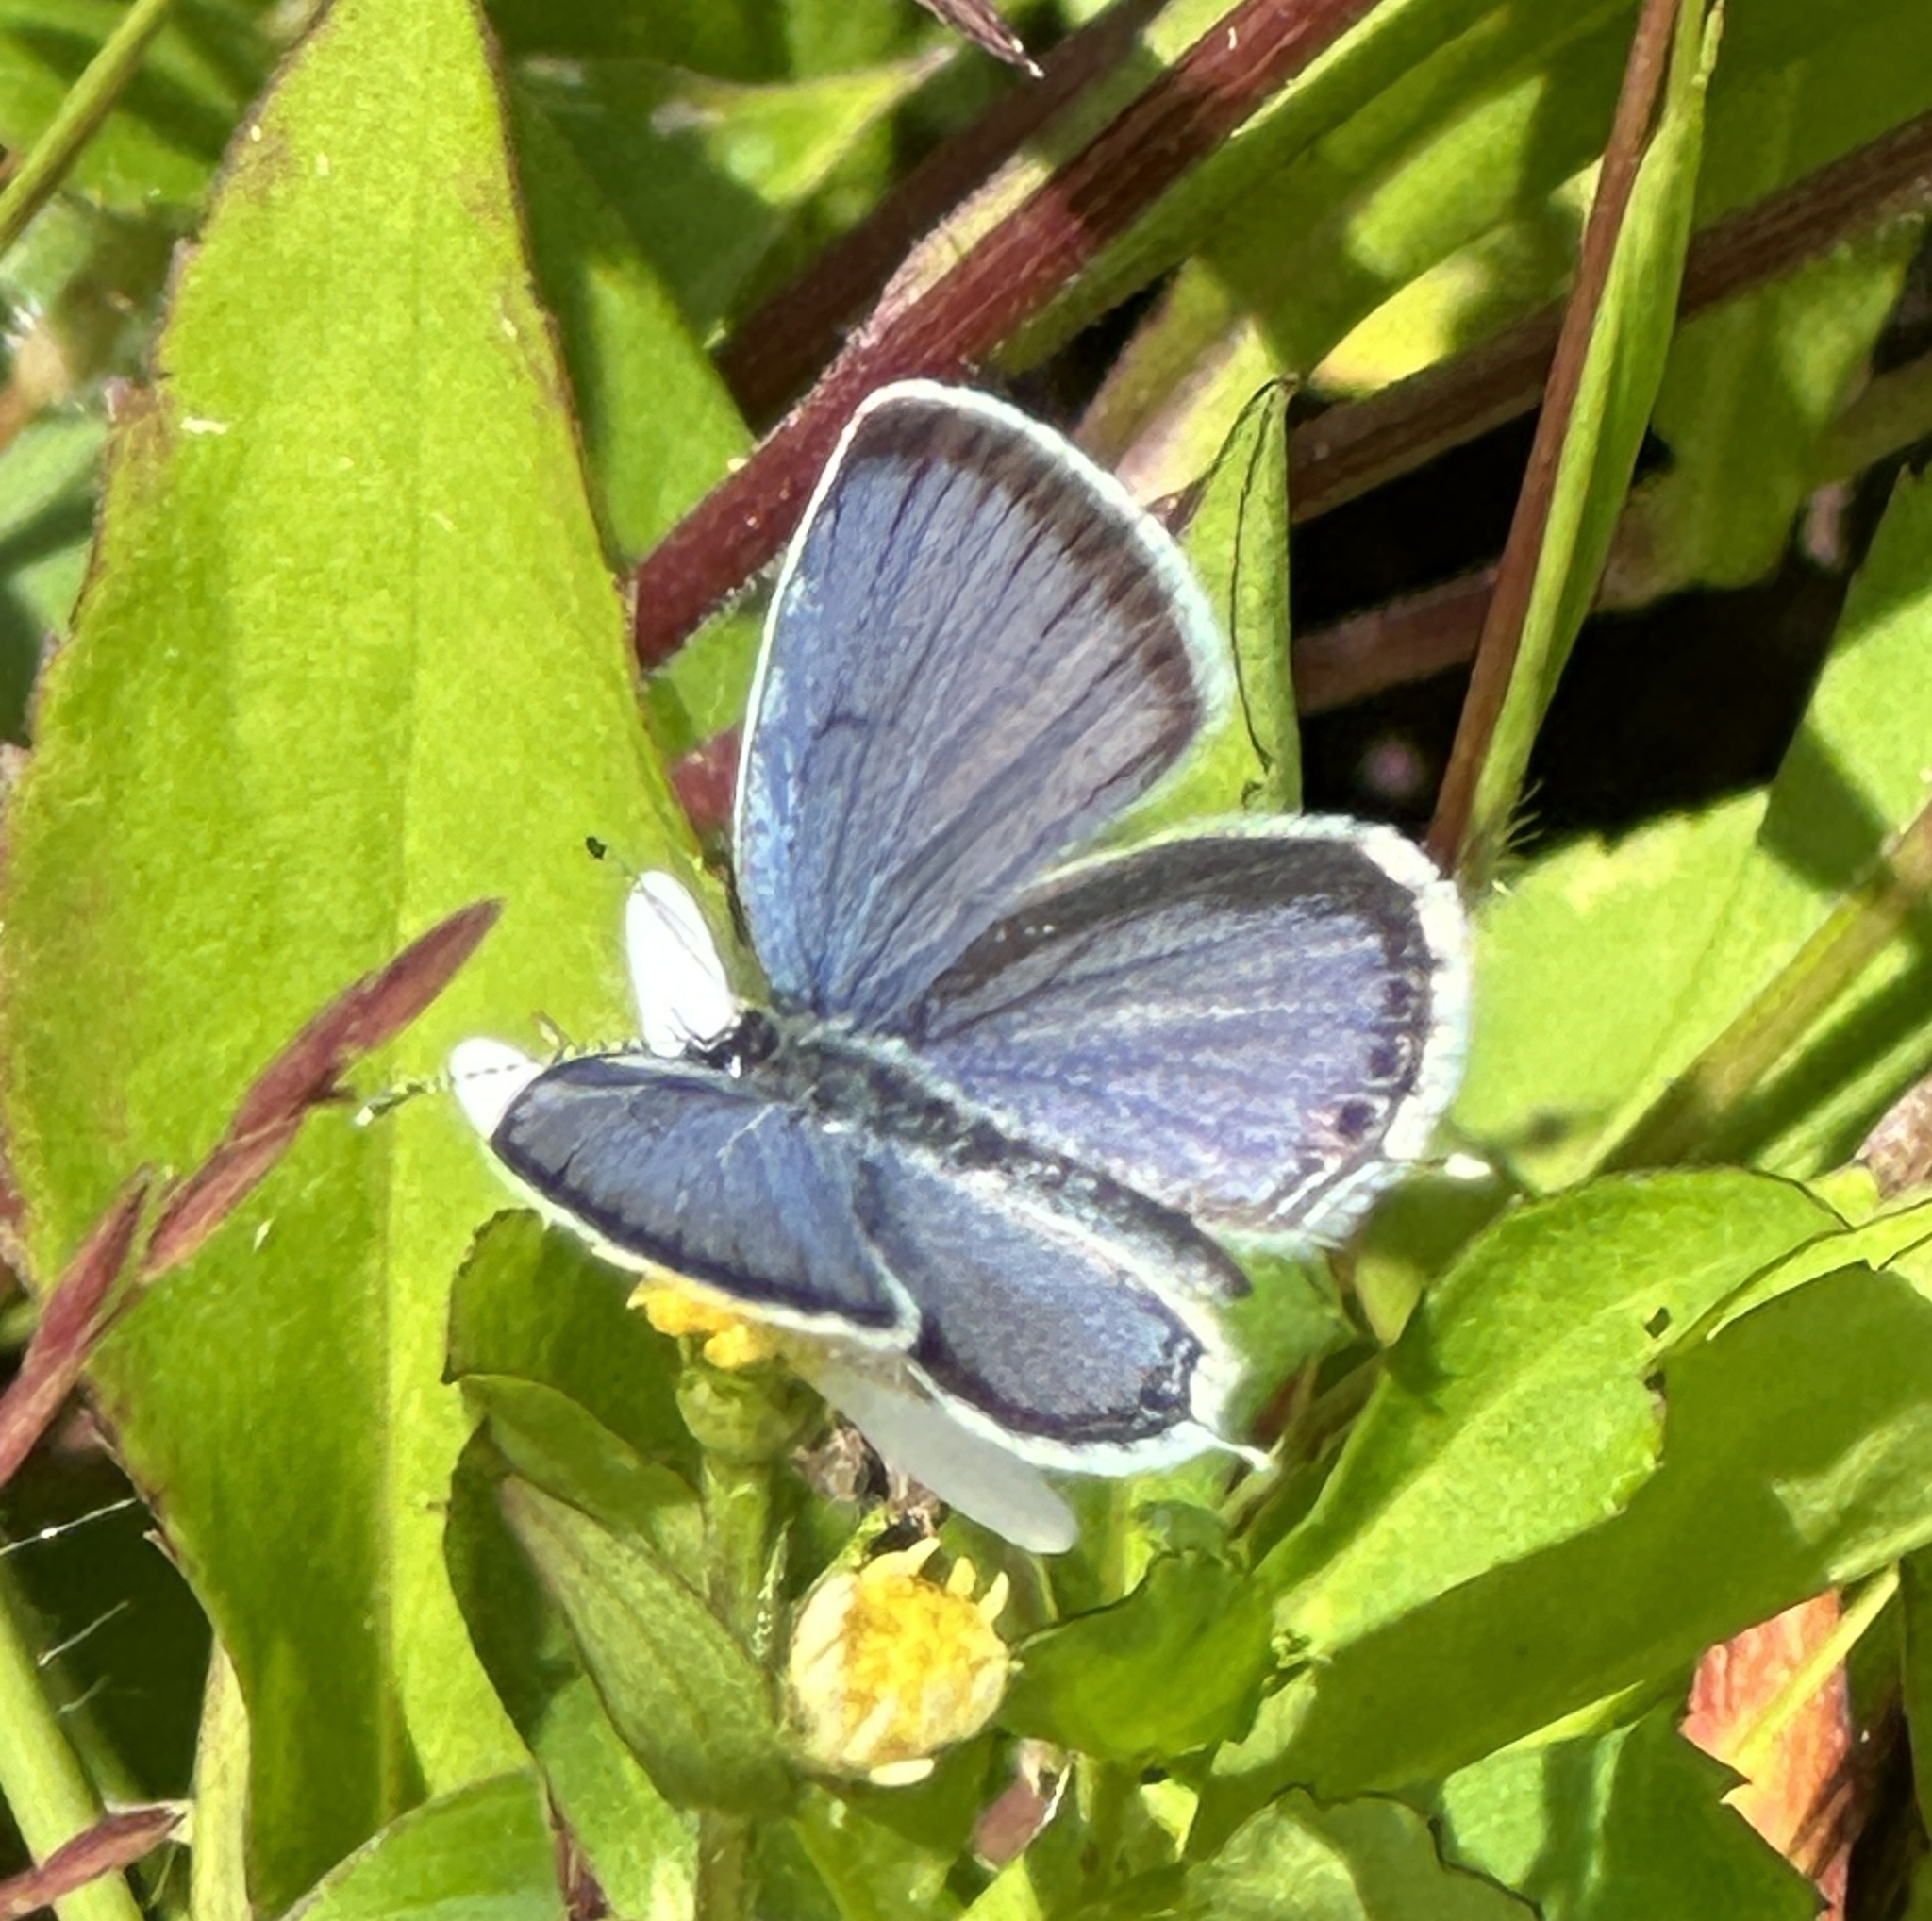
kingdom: Animalia
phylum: Arthropoda
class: Insecta
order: Lepidoptera
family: Lycaenidae
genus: Elkalyce
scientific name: Elkalyce comyntas
